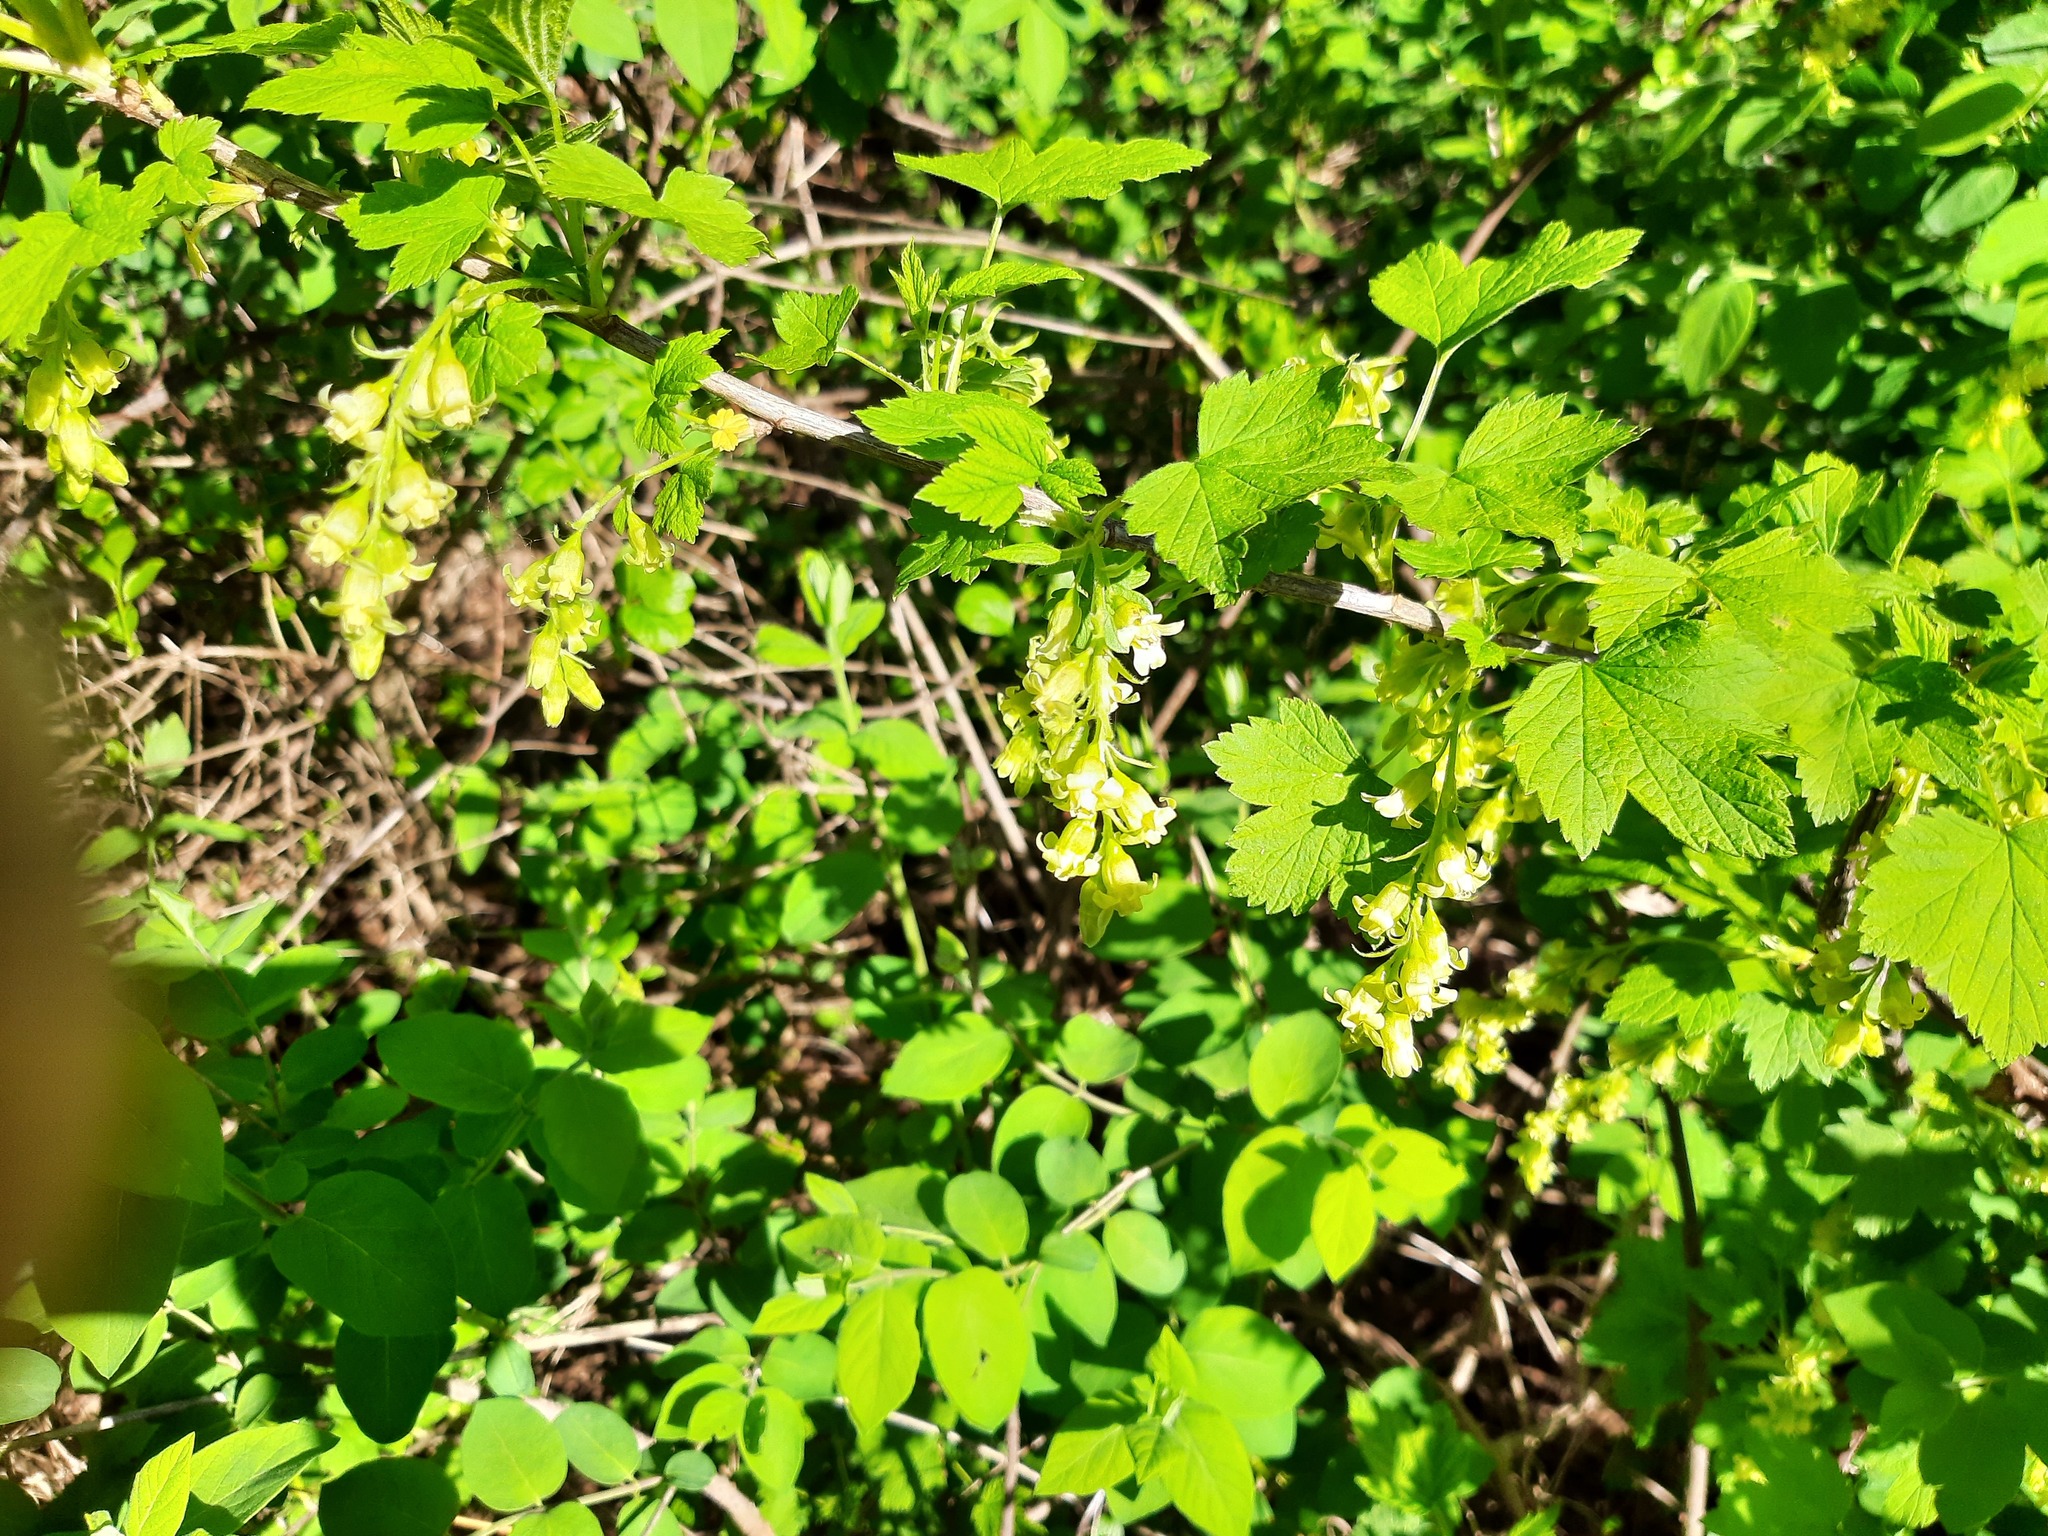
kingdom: Plantae
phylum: Tracheophyta
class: Magnoliopsida
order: Saxifragales
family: Grossulariaceae
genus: Ribes
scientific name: Ribes americanum
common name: American black currant
